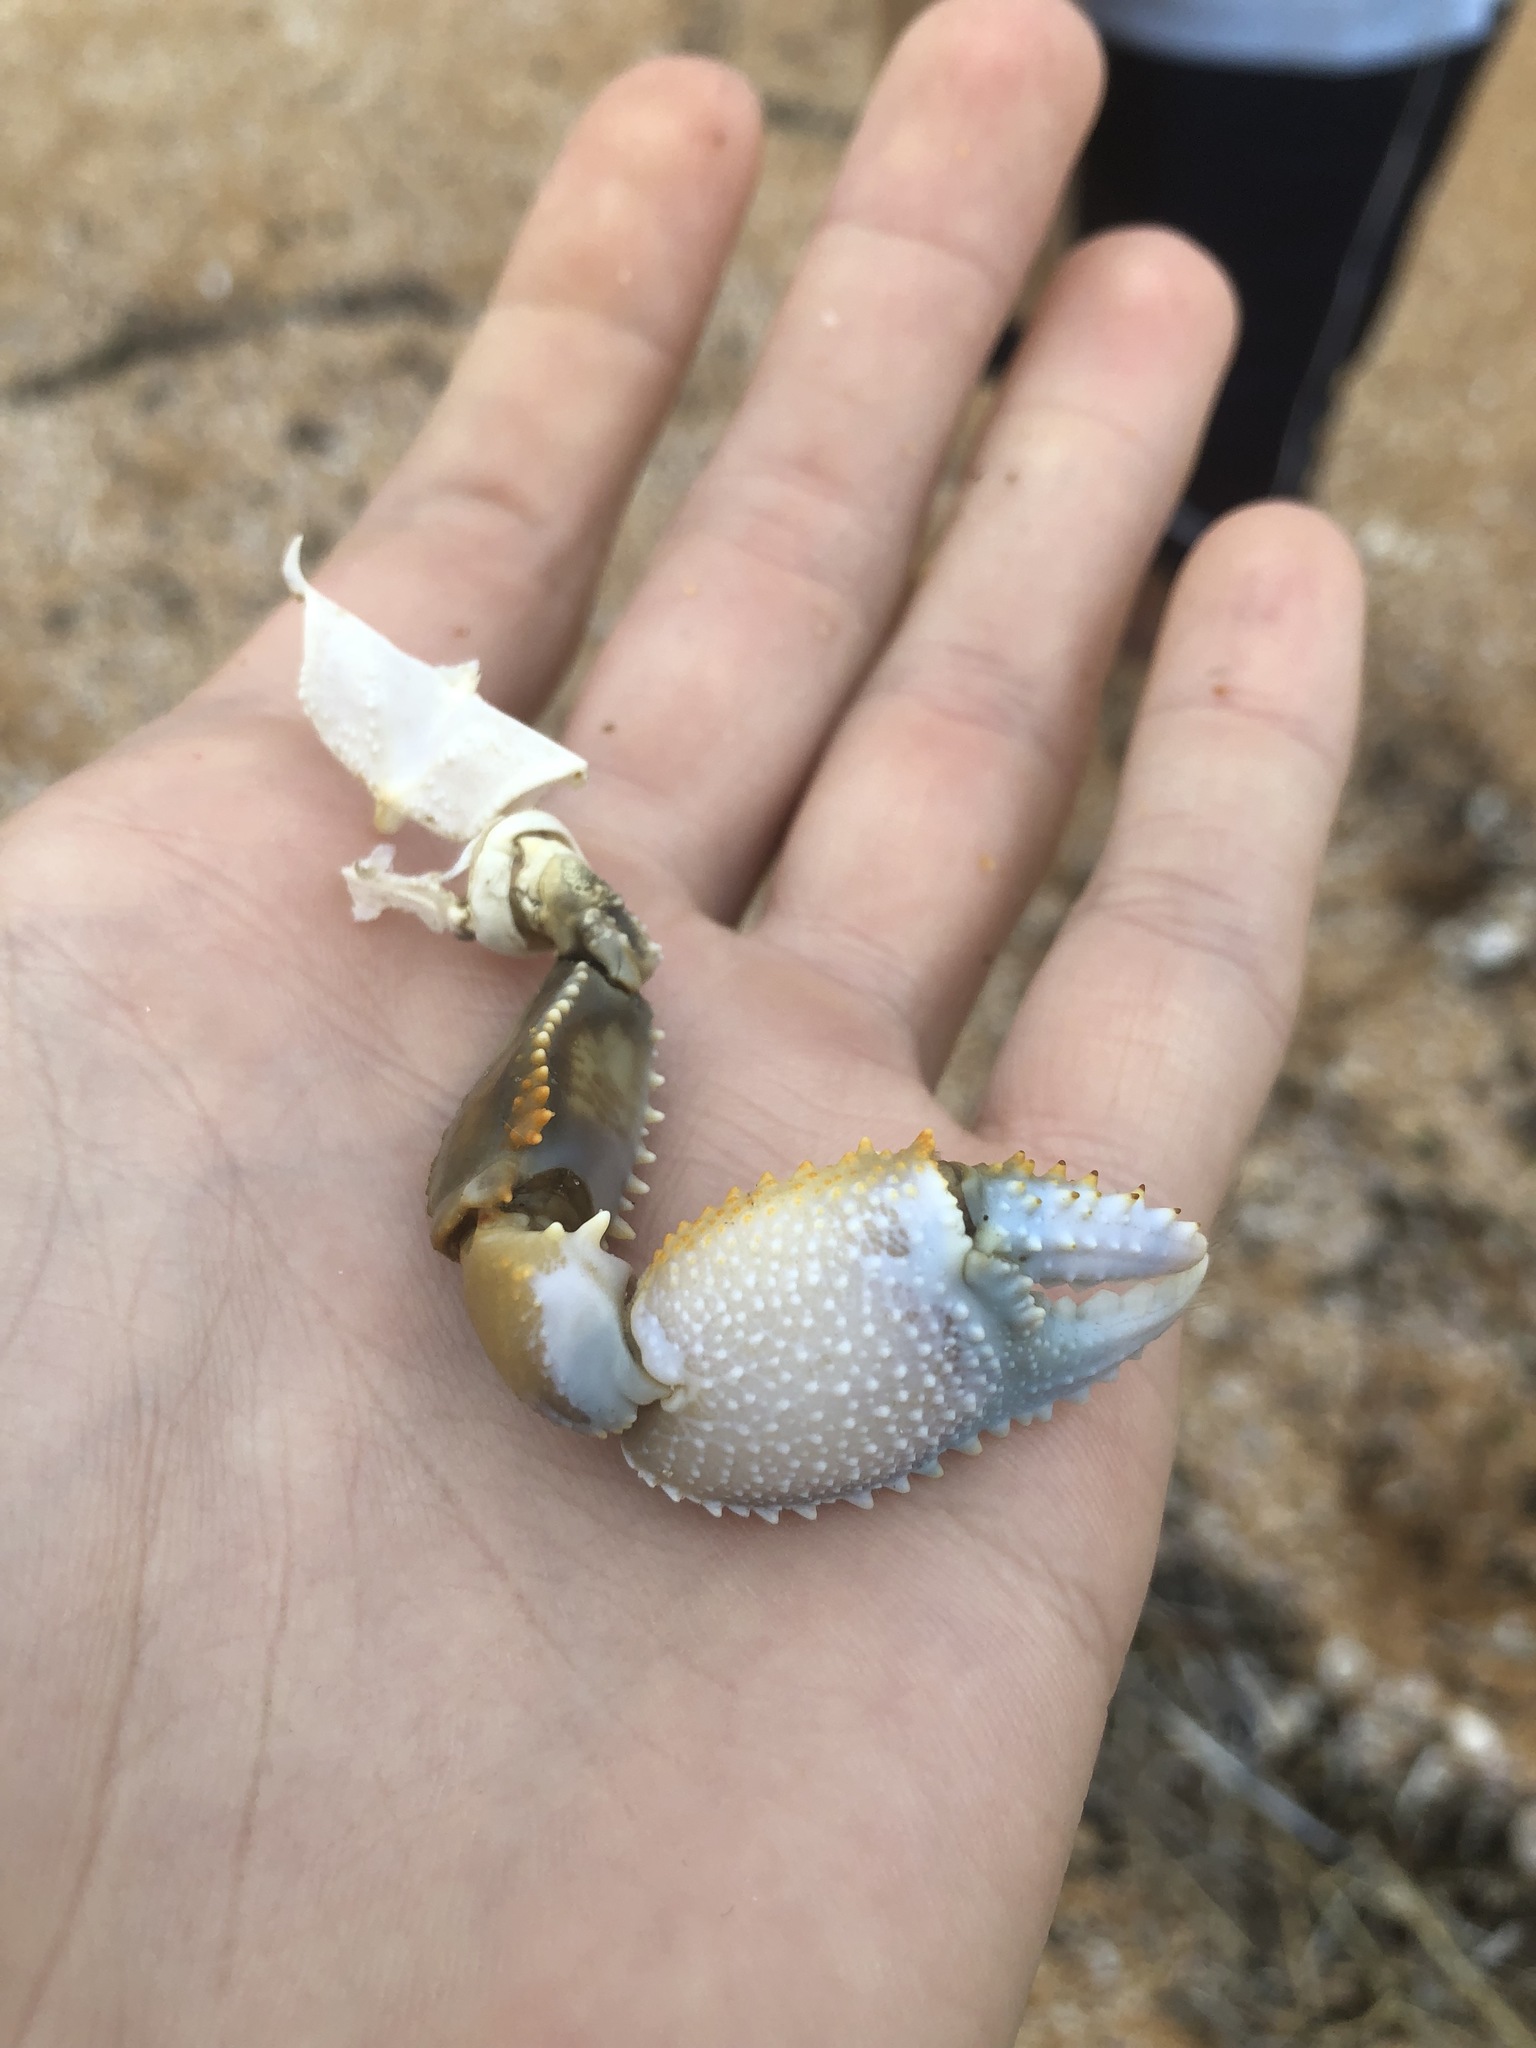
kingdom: Animalia
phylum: Arthropoda
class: Malacostraca
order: Decapoda
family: Ocypodidae
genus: Ocypode
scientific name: Ocypode quadrata
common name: Ghost crab
